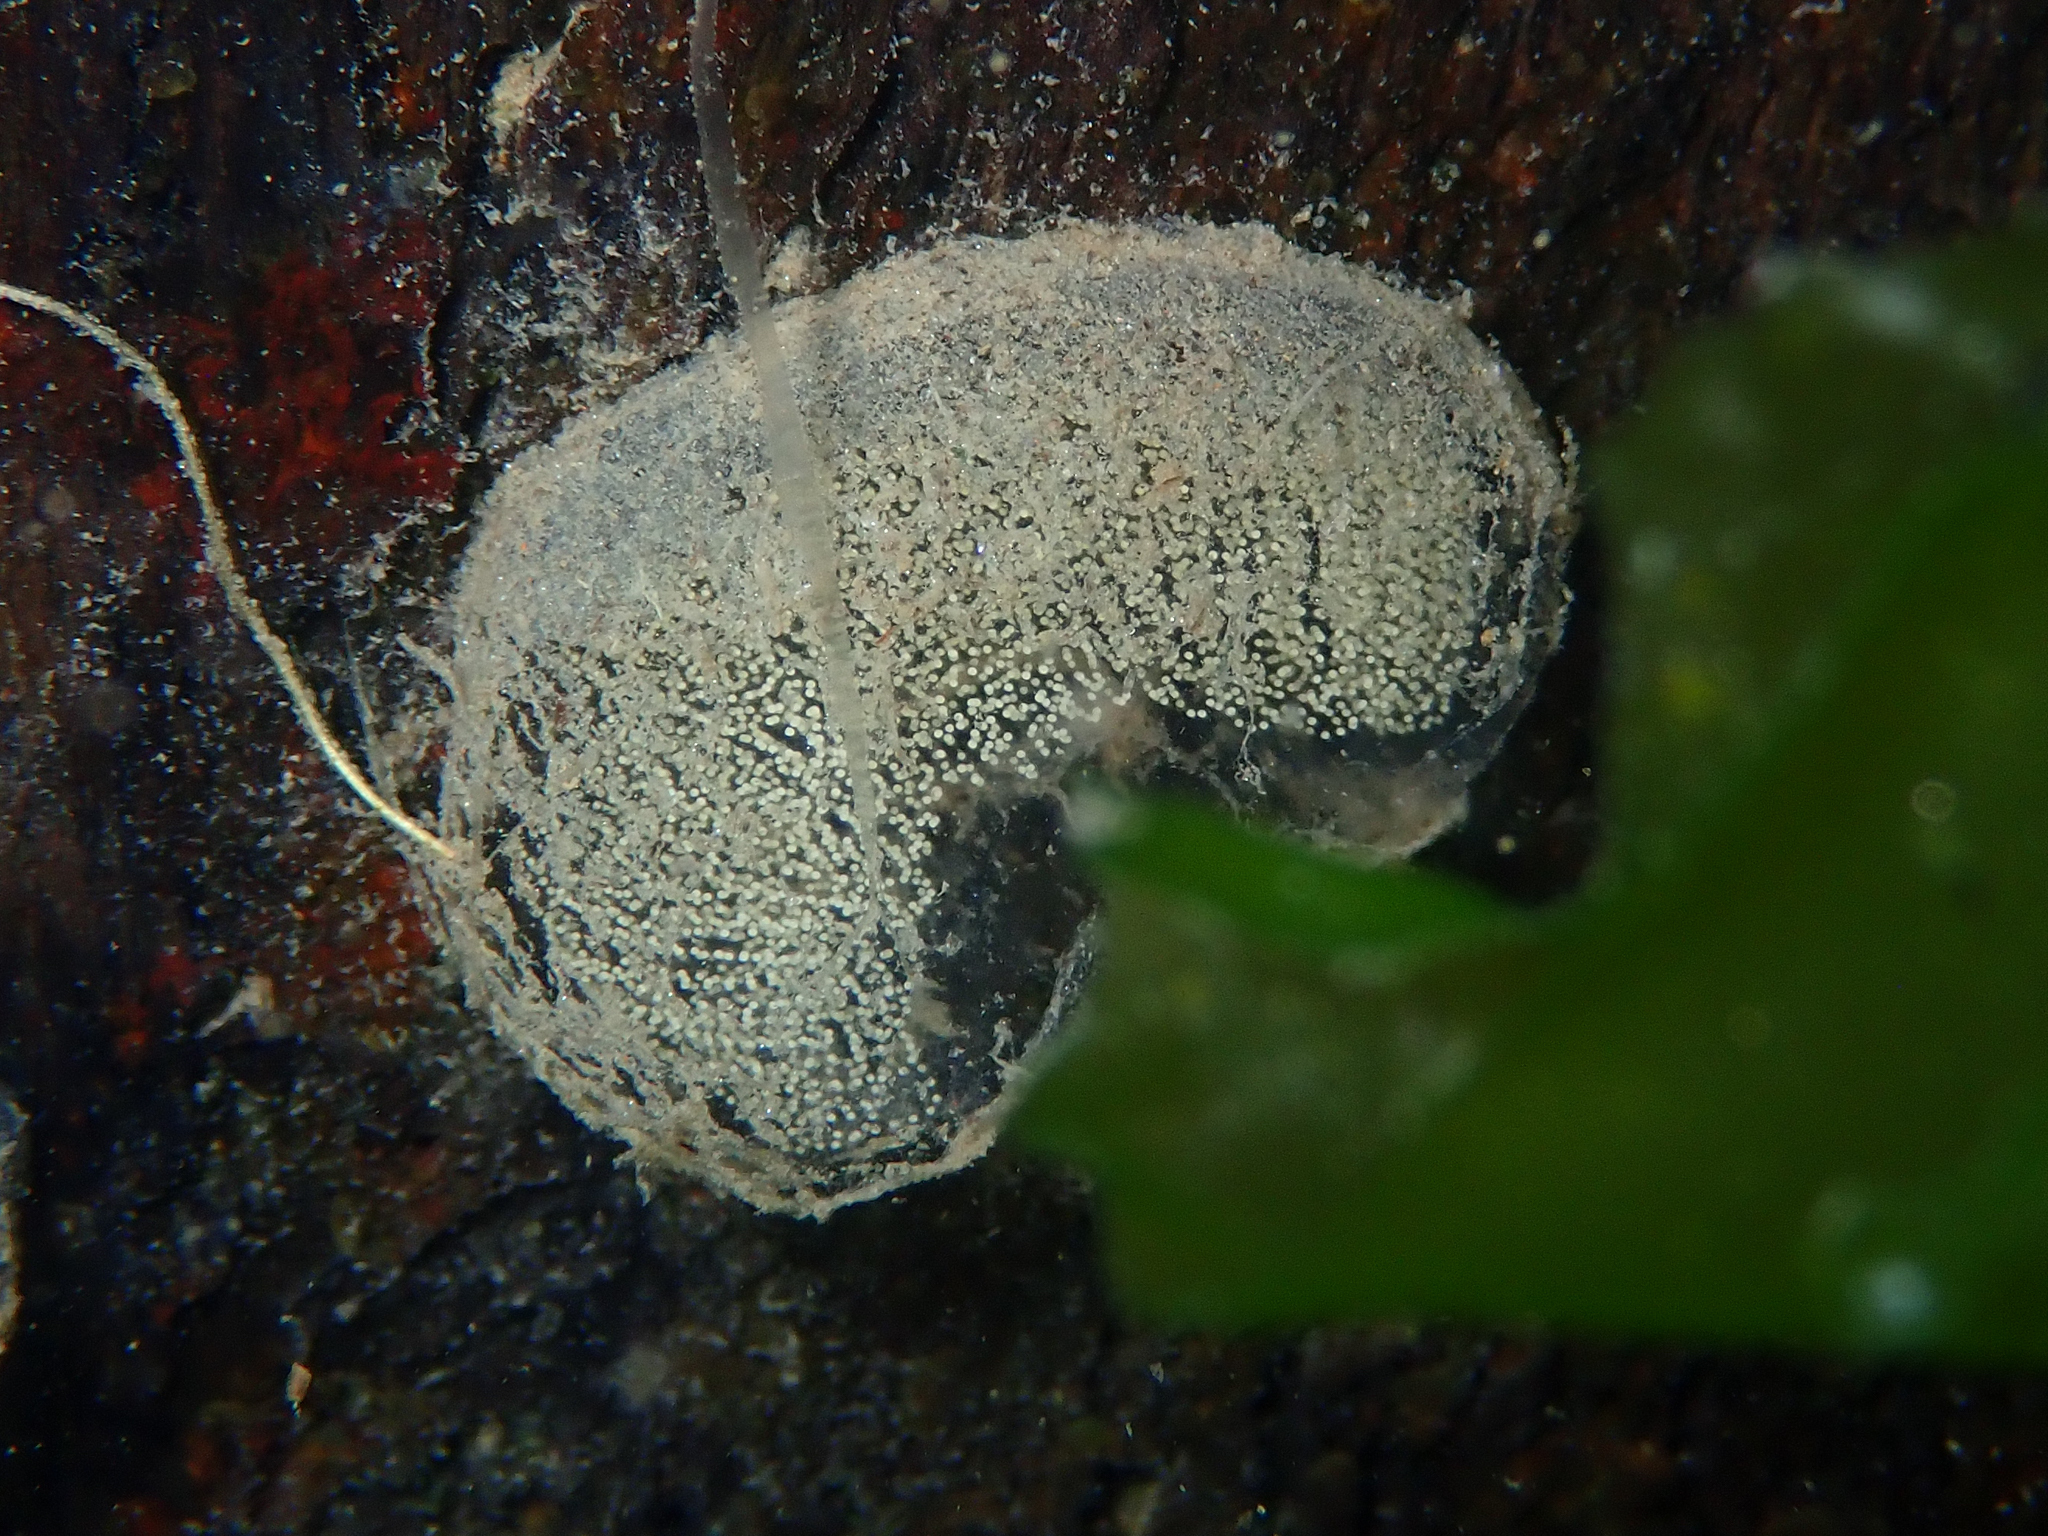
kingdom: Animalia
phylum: Mollusca
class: Gastropoda
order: Cephalaspidea
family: Haminoeidae
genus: Papawera
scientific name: Papawera zelandiae
